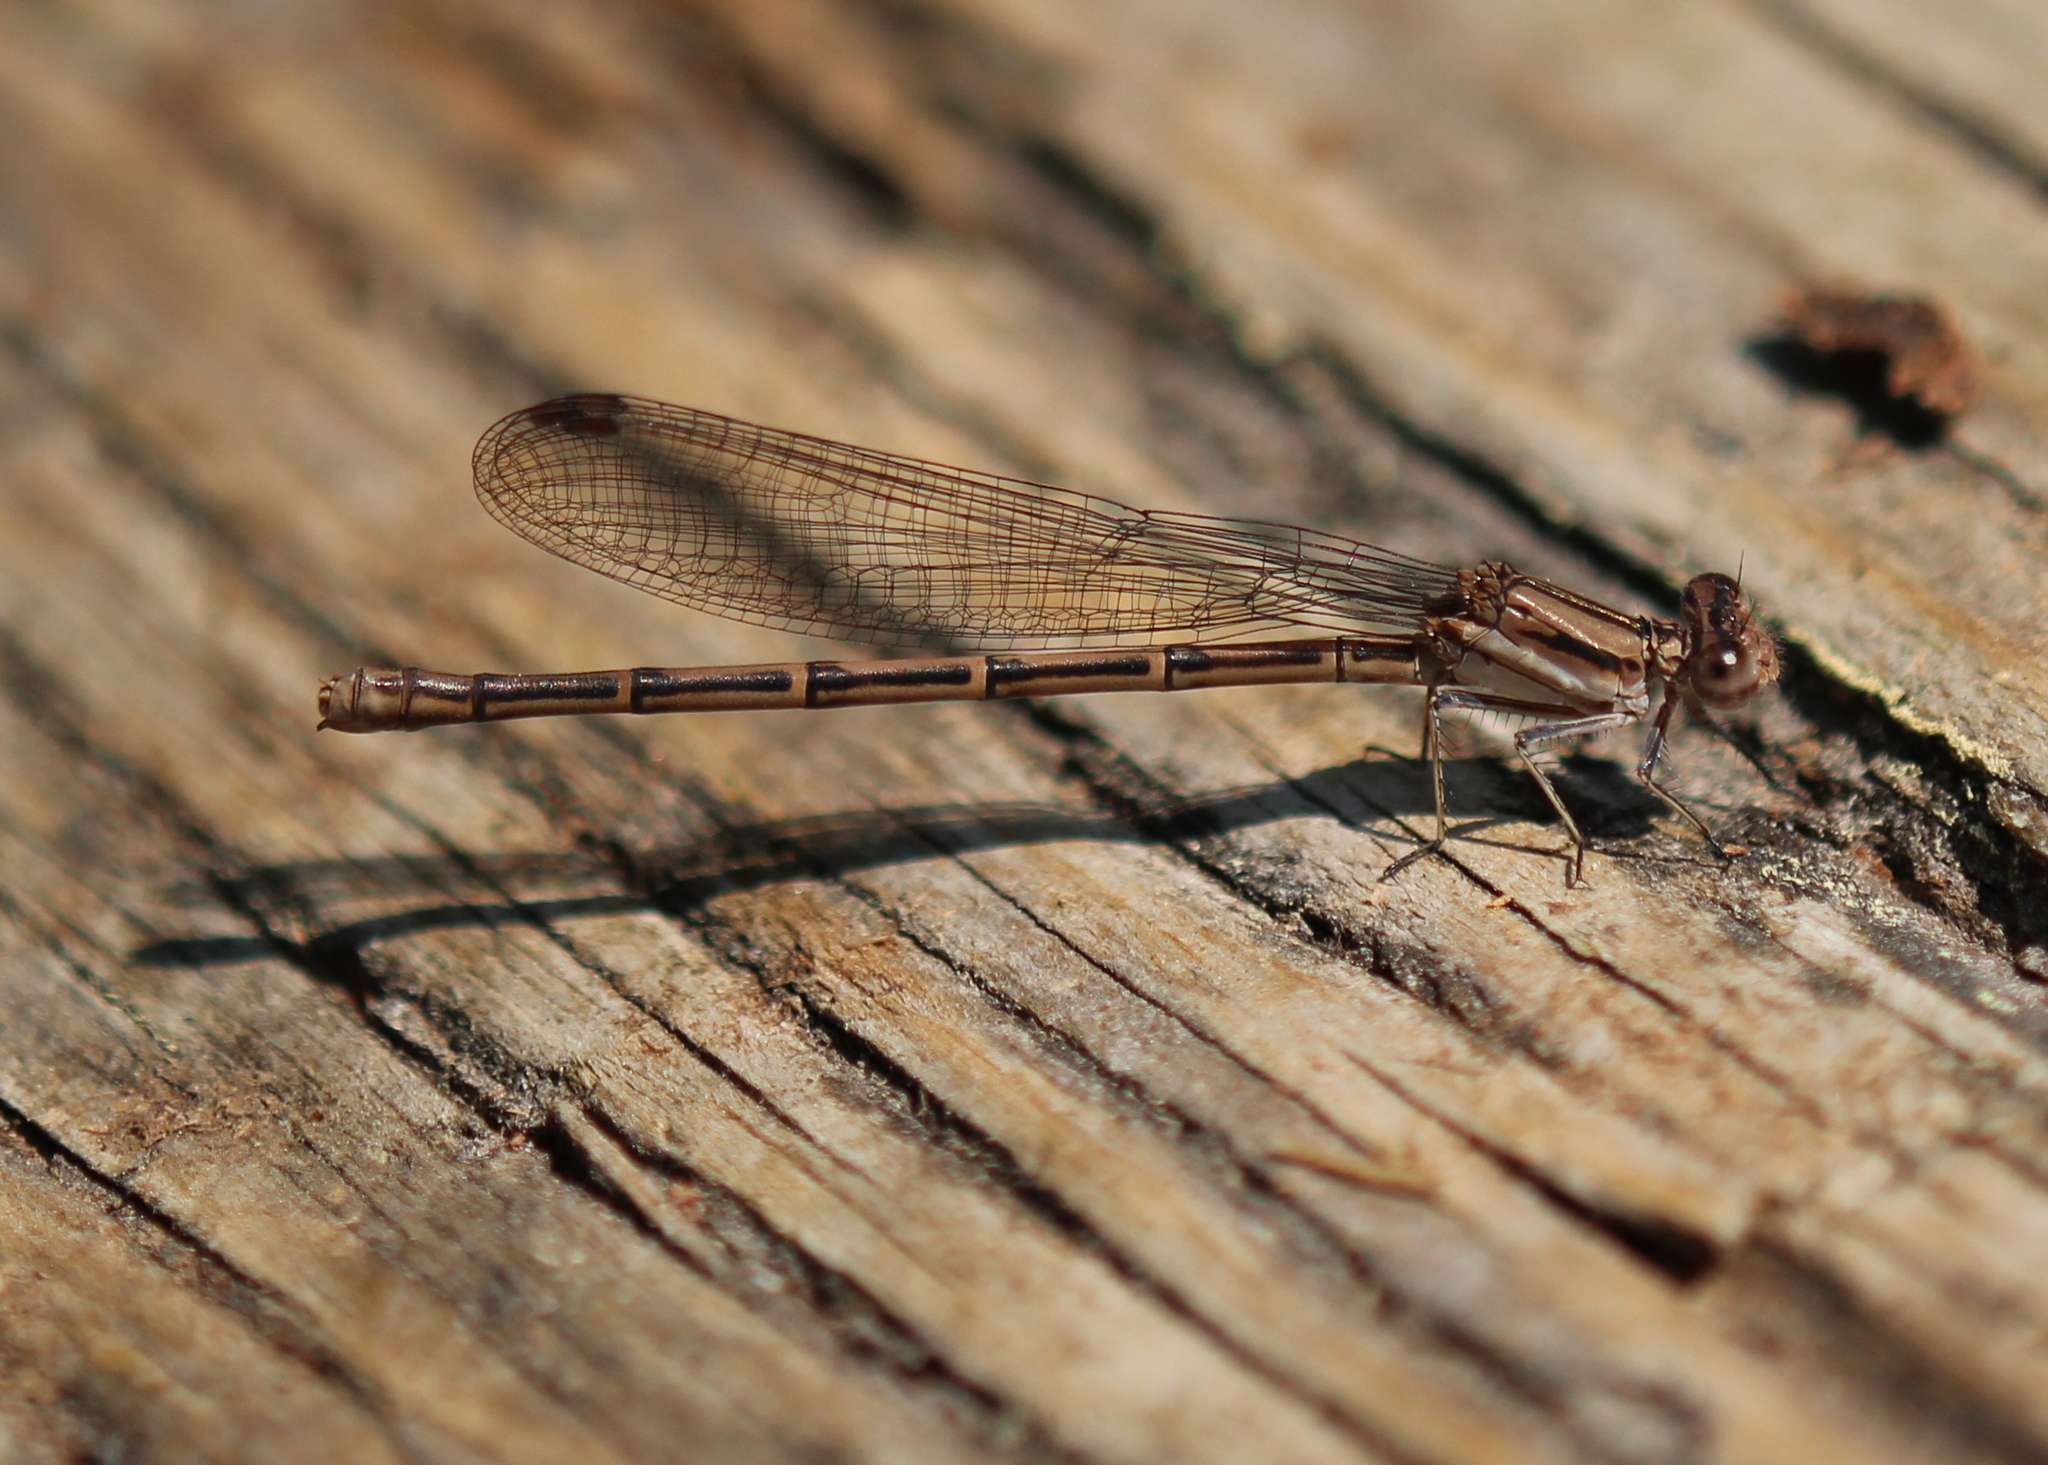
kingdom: Animalia
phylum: Arthropoda
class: Insecta
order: Odonata
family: Coenagrionidae
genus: Argia
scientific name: Argia fumipennis
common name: Variable dancer
